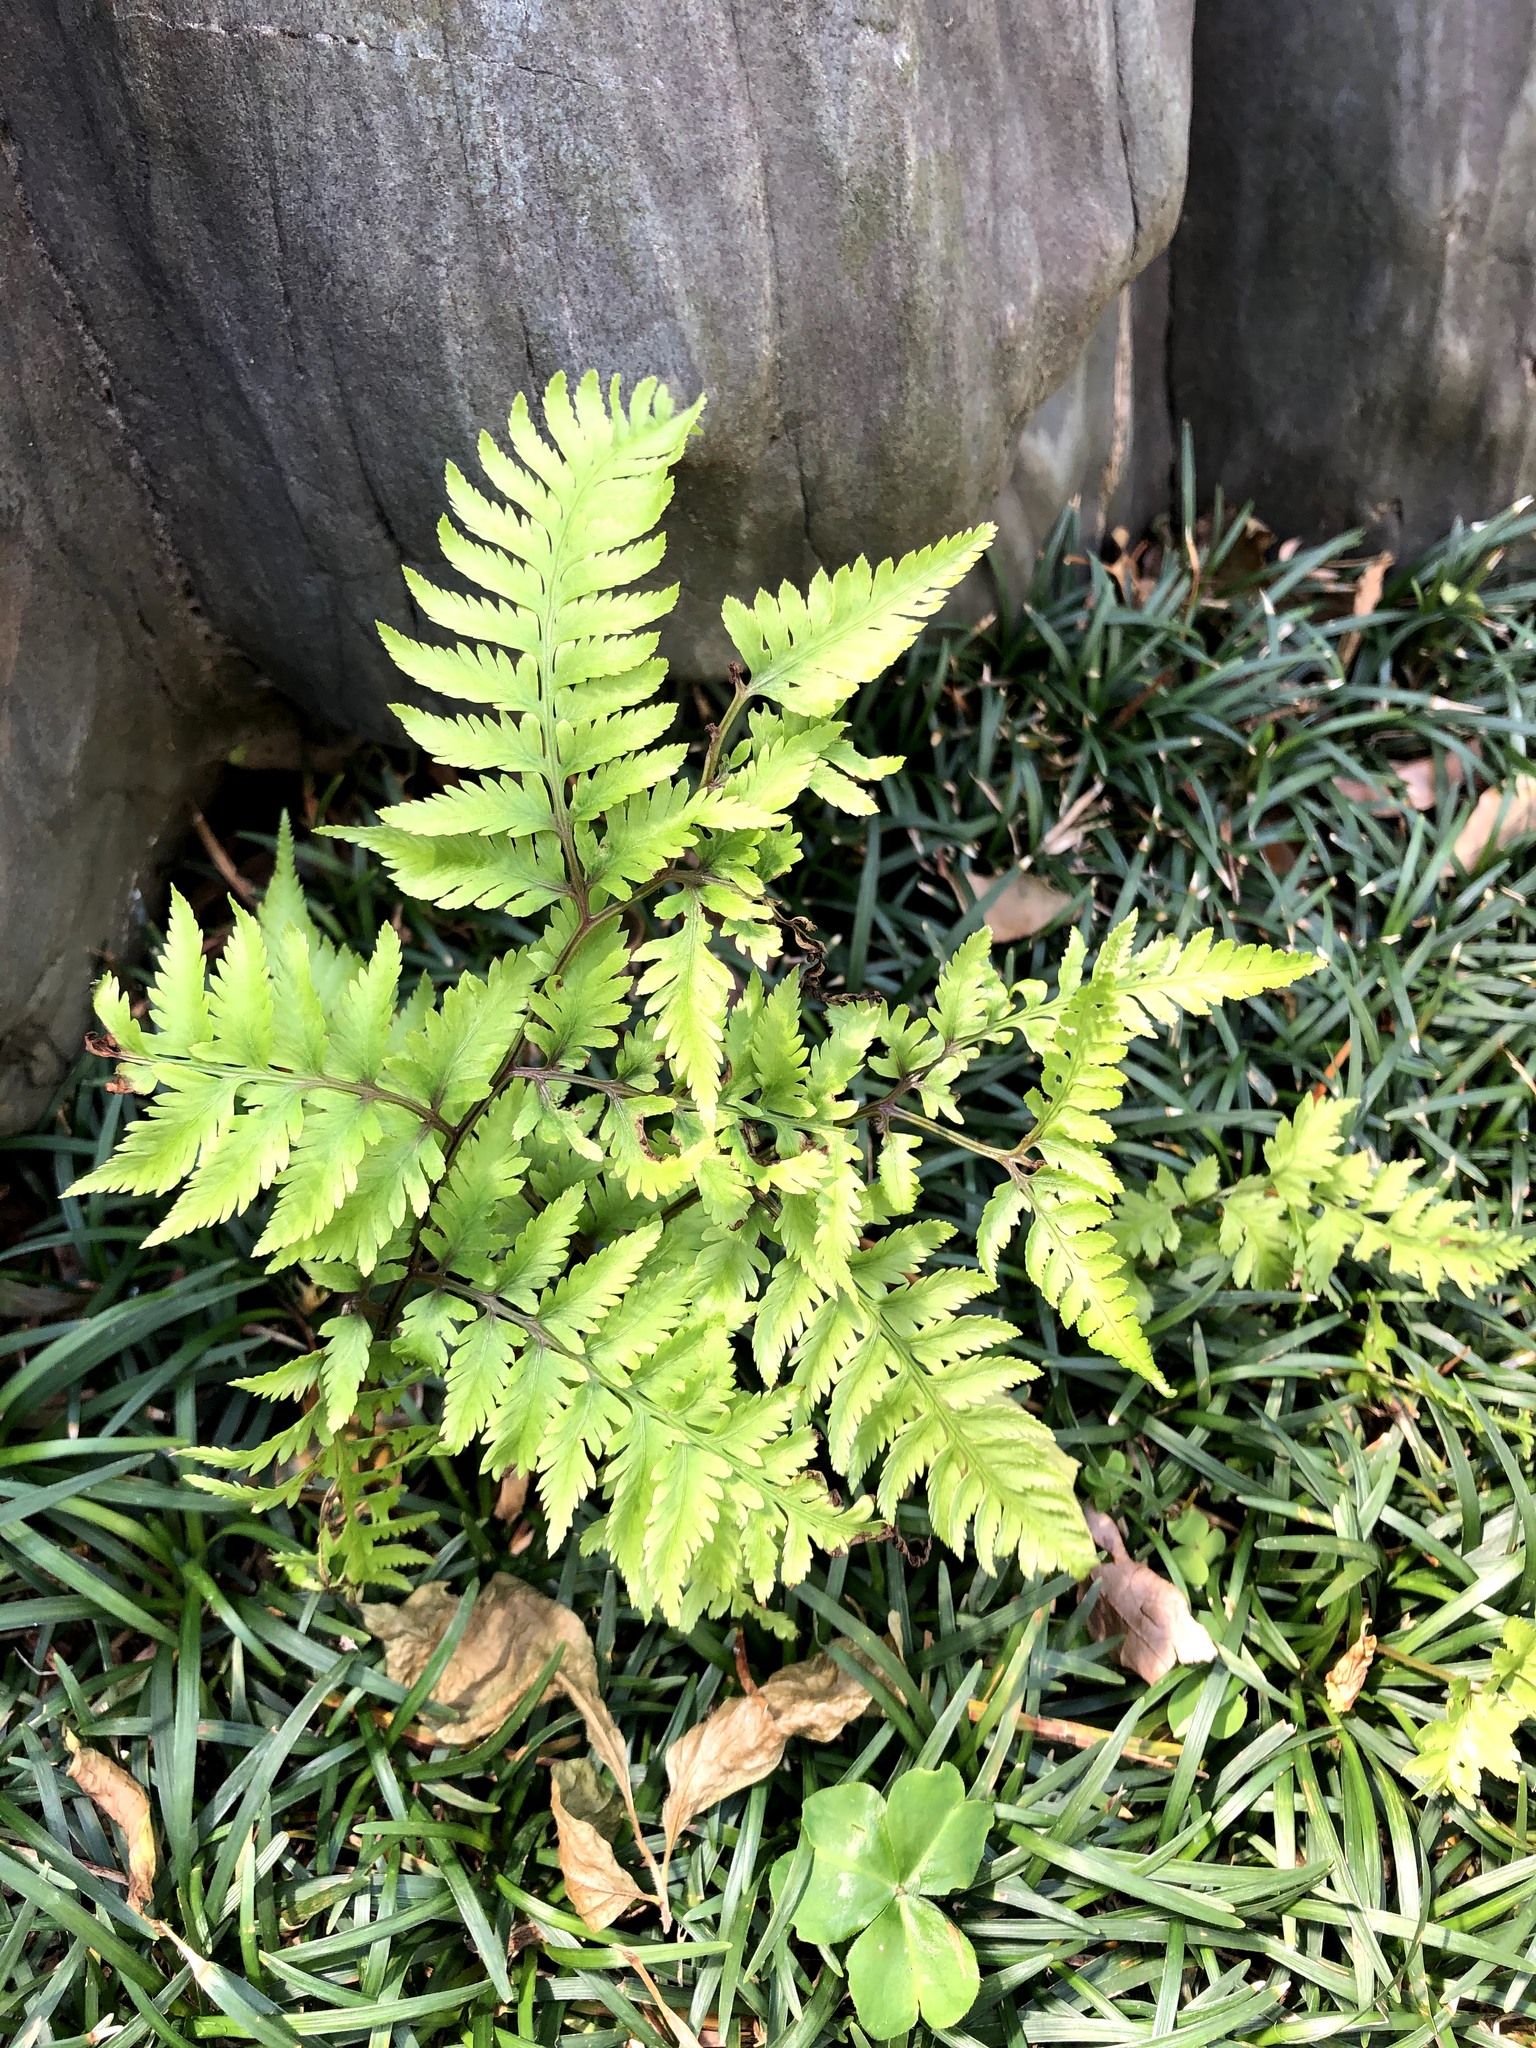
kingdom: Plantae
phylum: Tracheophyta
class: Polypodiopsida
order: Polypodiales
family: Athyriaceae
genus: Anisocampium
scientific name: Anisocampium niponicum
